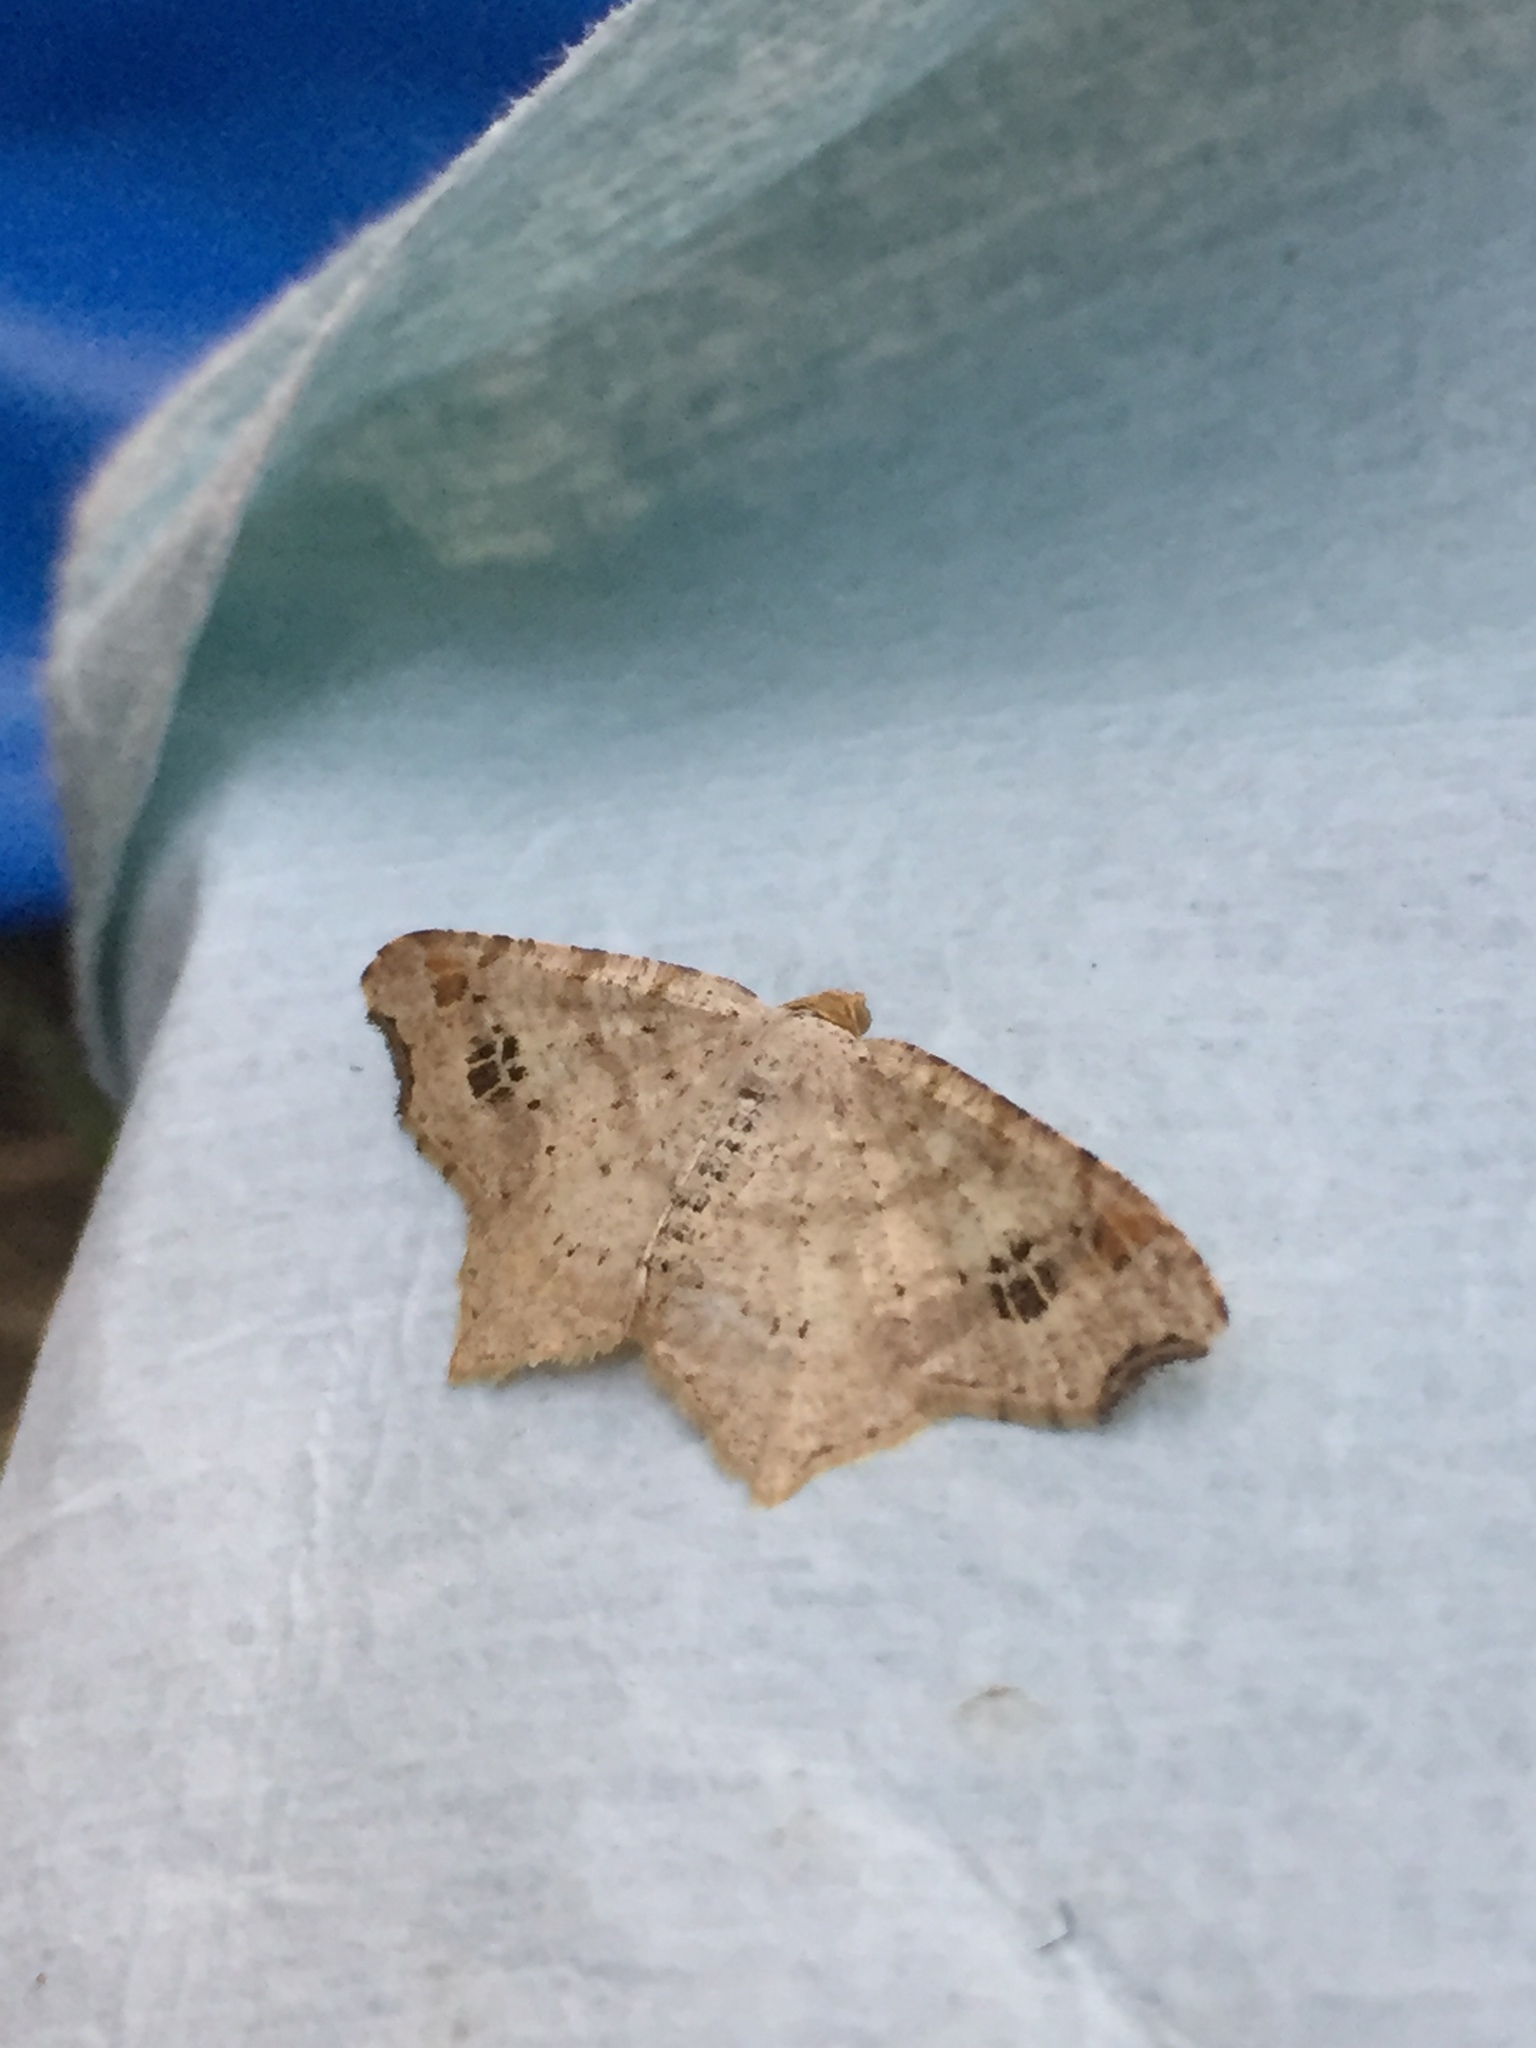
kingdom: Animalia
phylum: Arthropoda
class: Insecta
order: Lepidoptera
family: Geometridae
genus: Macaria
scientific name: Macaria aemulataria
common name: Common angle
